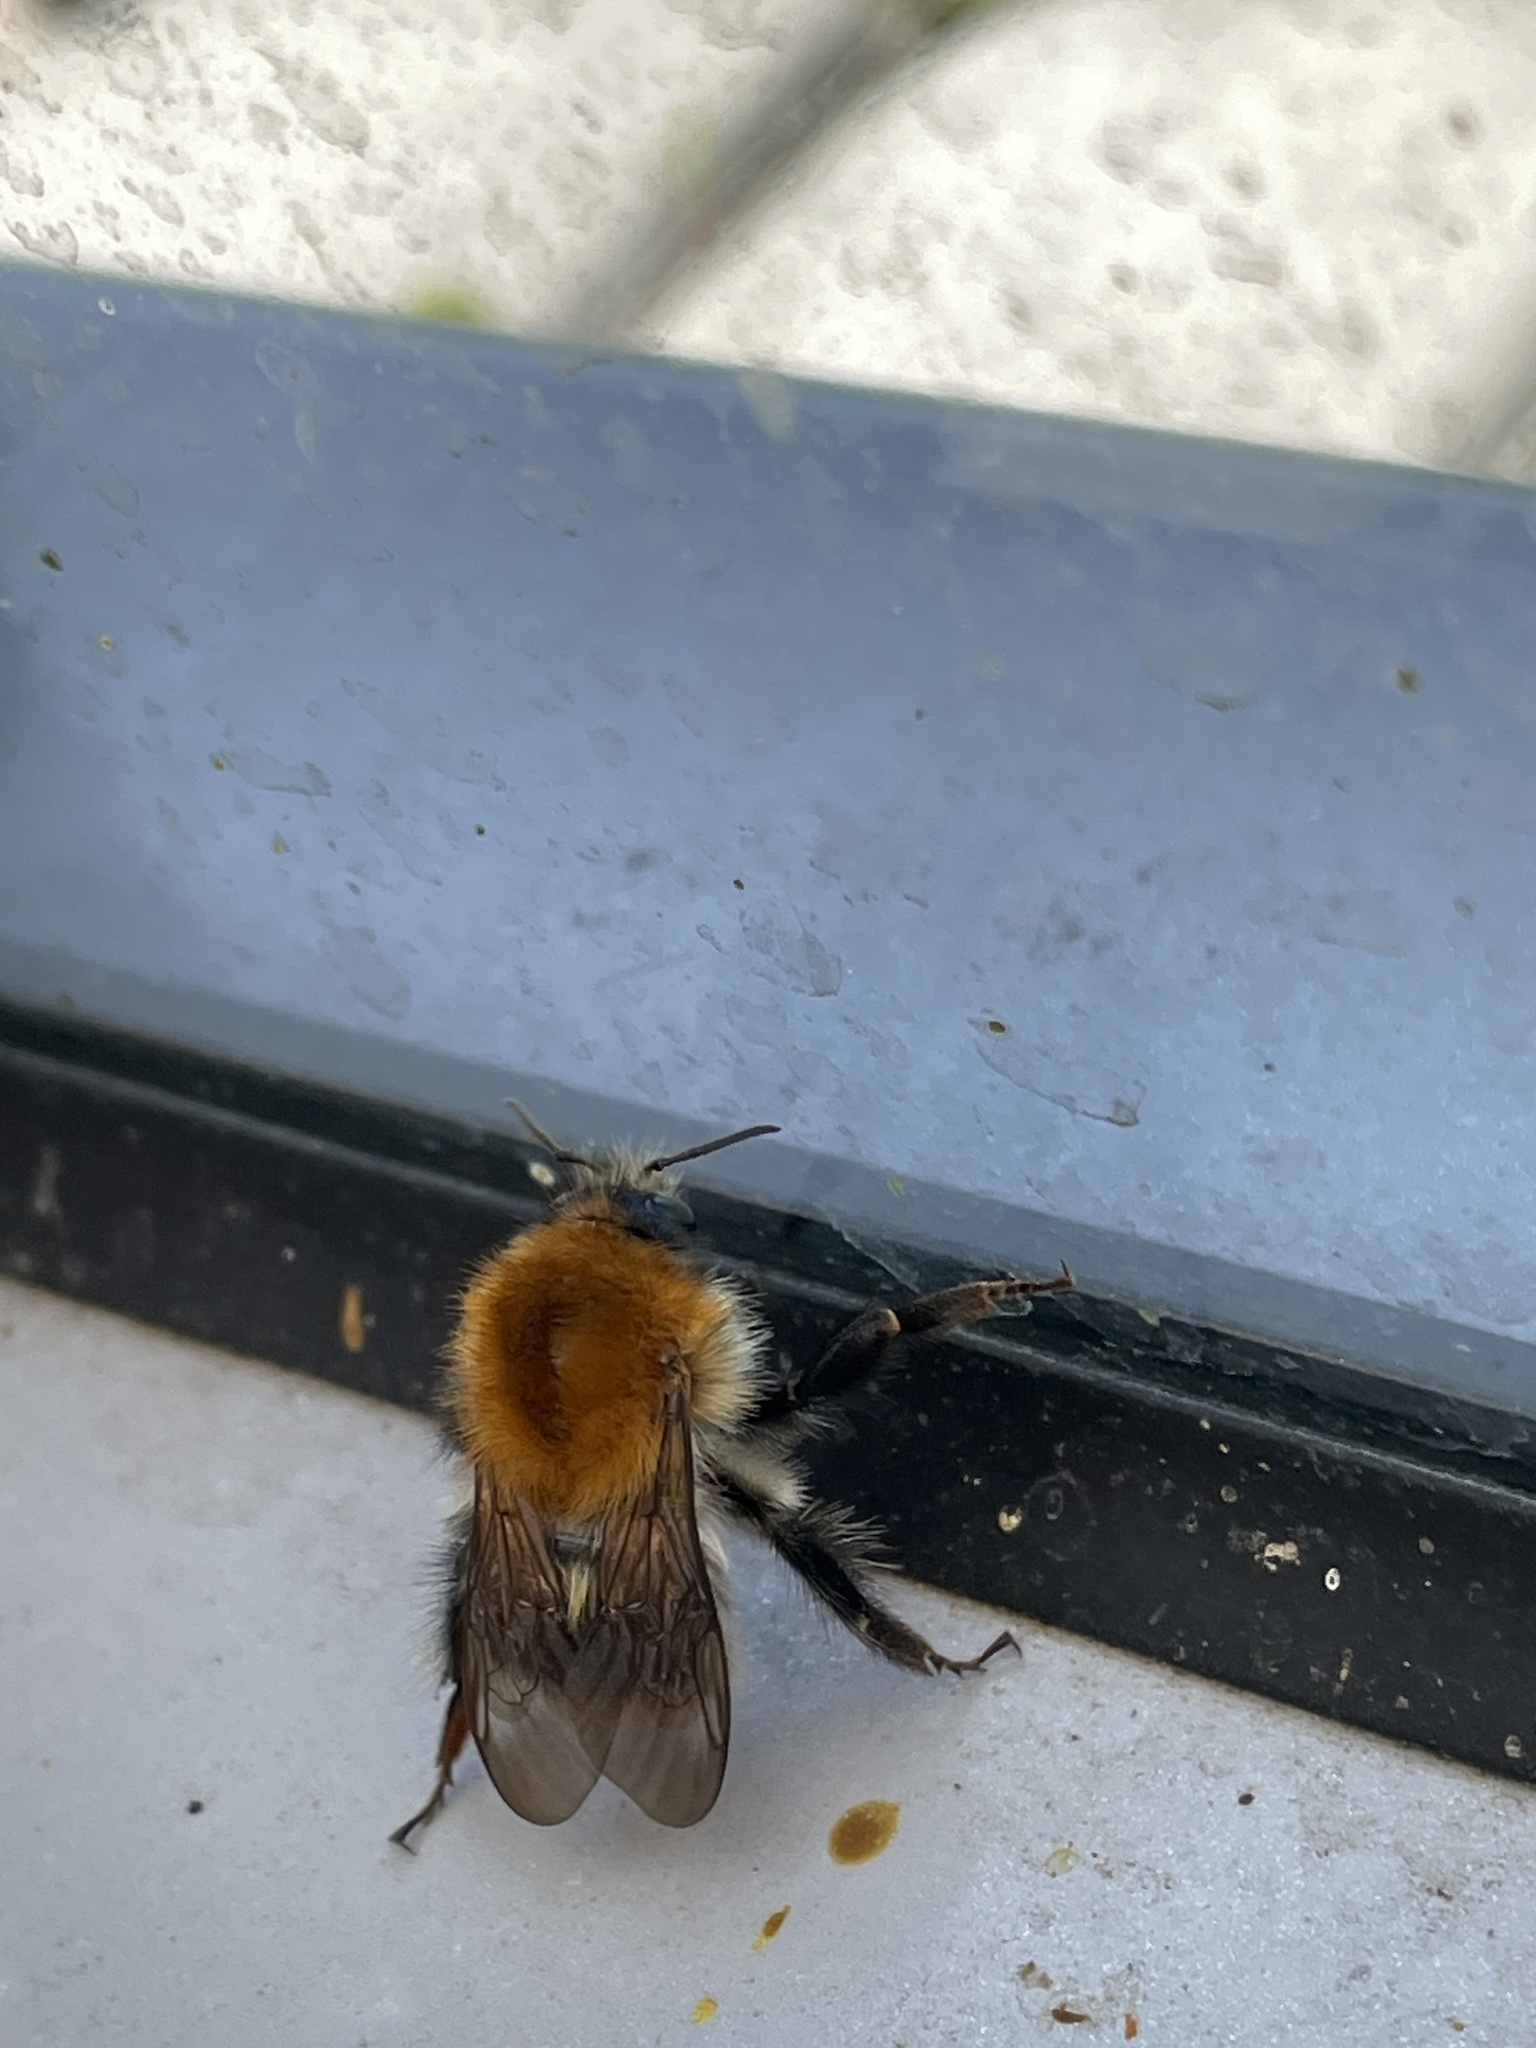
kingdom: Animalia
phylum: Arthropoda
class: Insecta
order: Hymenoptera
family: Apidae
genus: Bombus
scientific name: Bombus pascuorum
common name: Common carder bee
